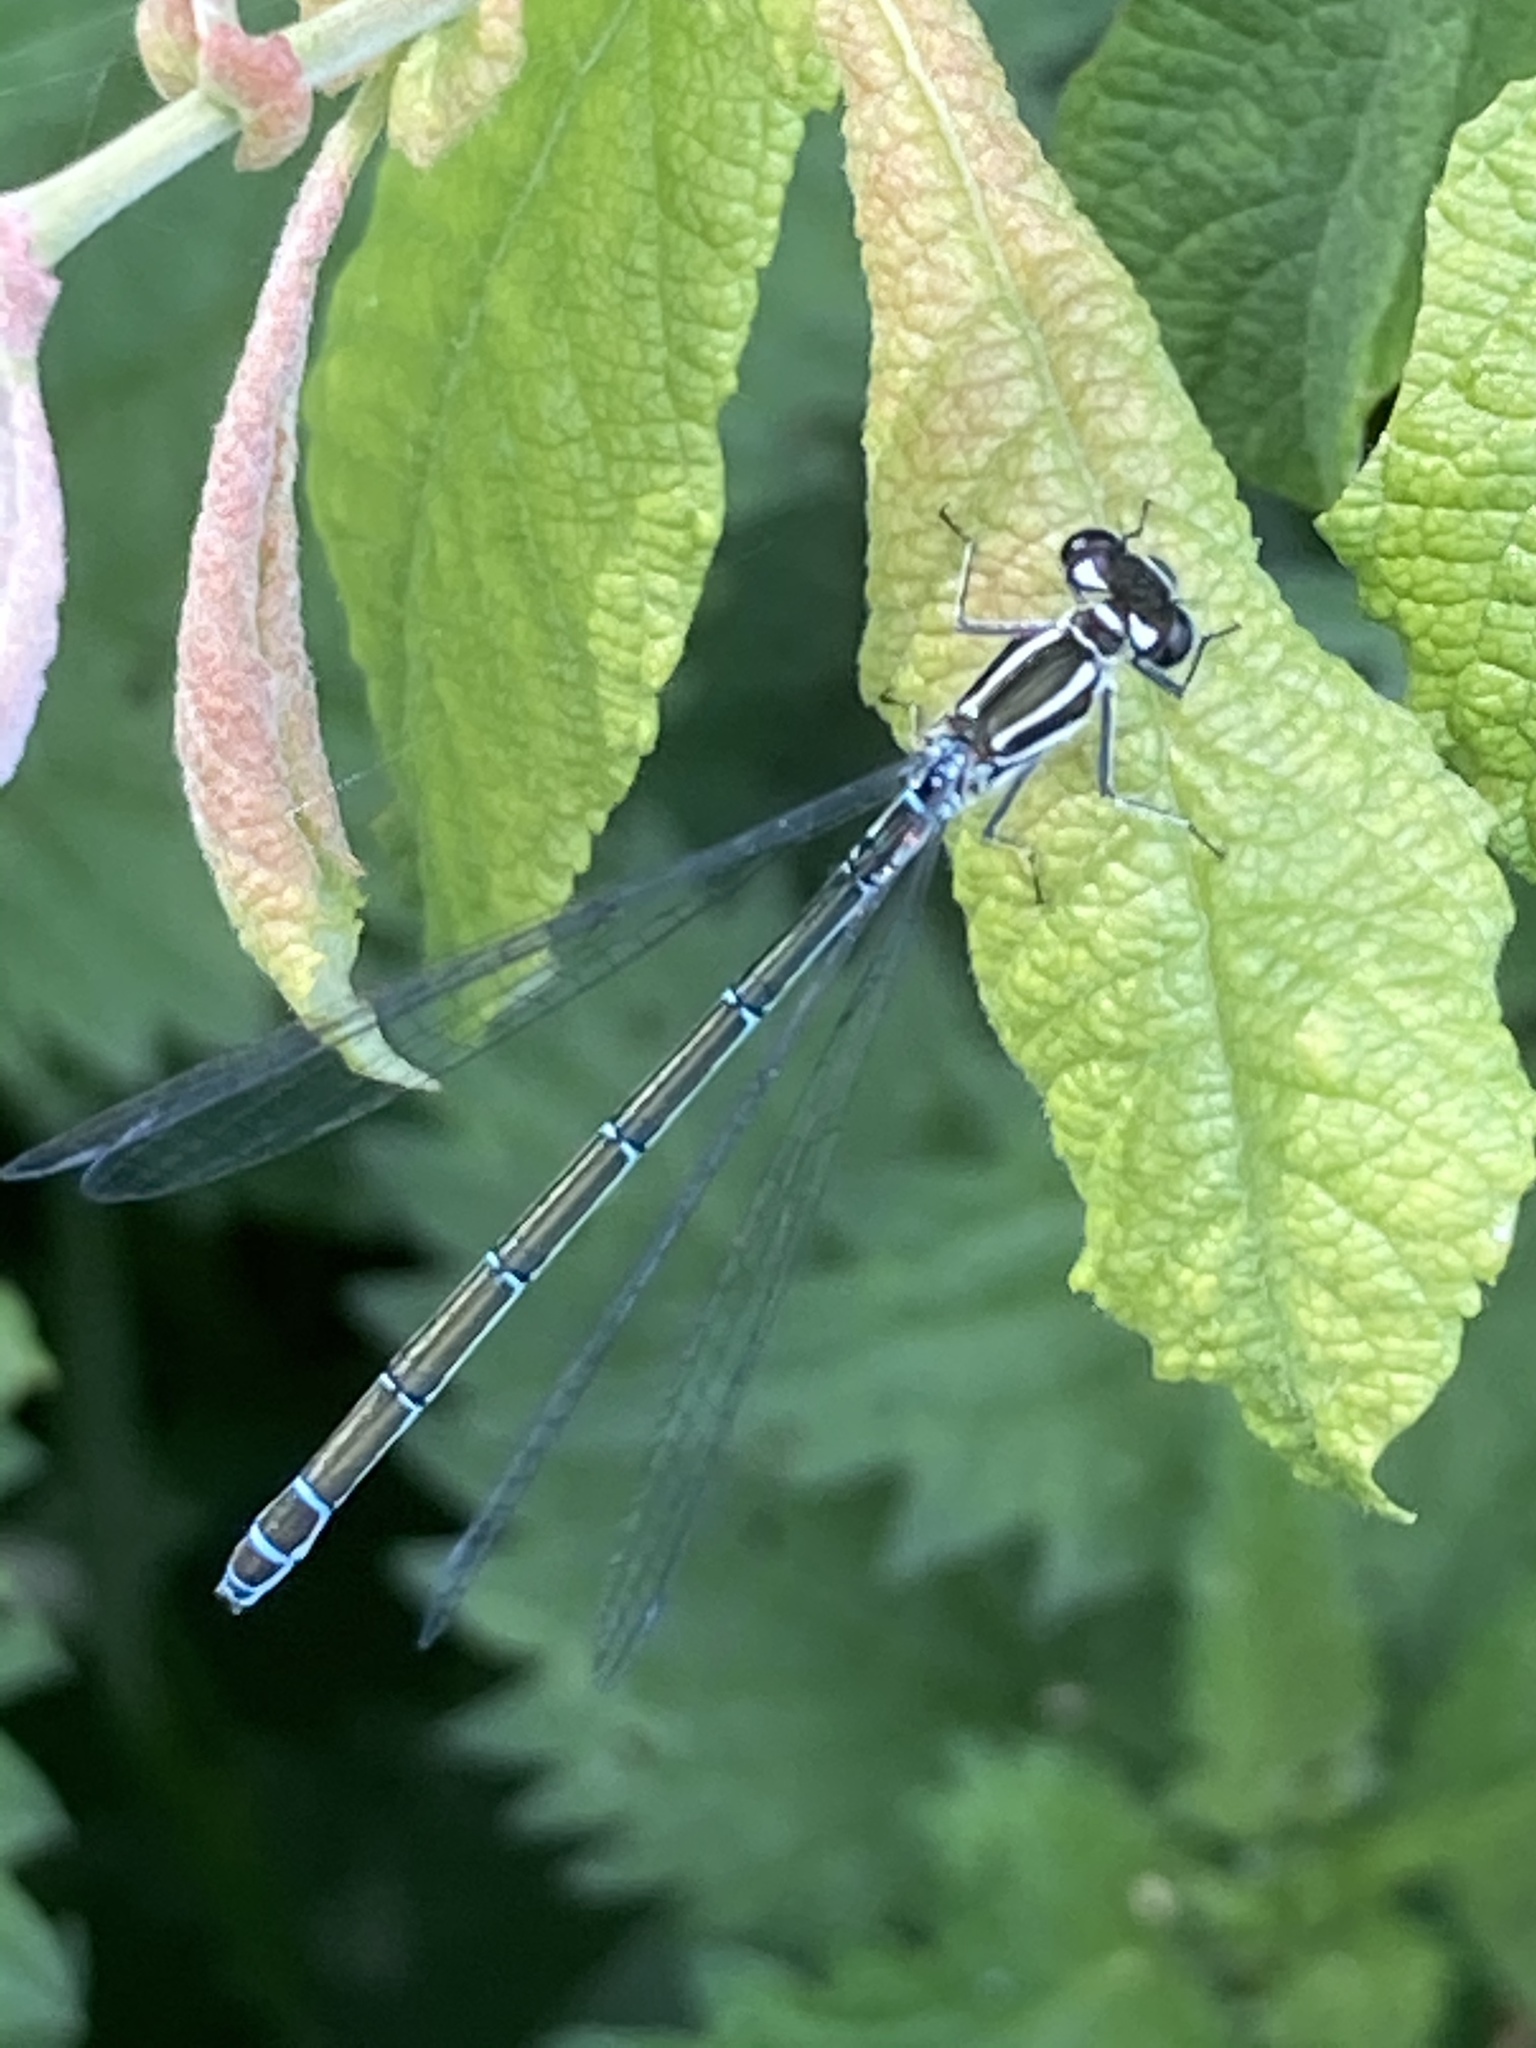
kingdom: Animalia
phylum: Arthropoda
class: Insecta
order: Odonata
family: Coenagrionidae
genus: Coenagrion
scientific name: Coenagrion puella
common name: Azure damselfly
